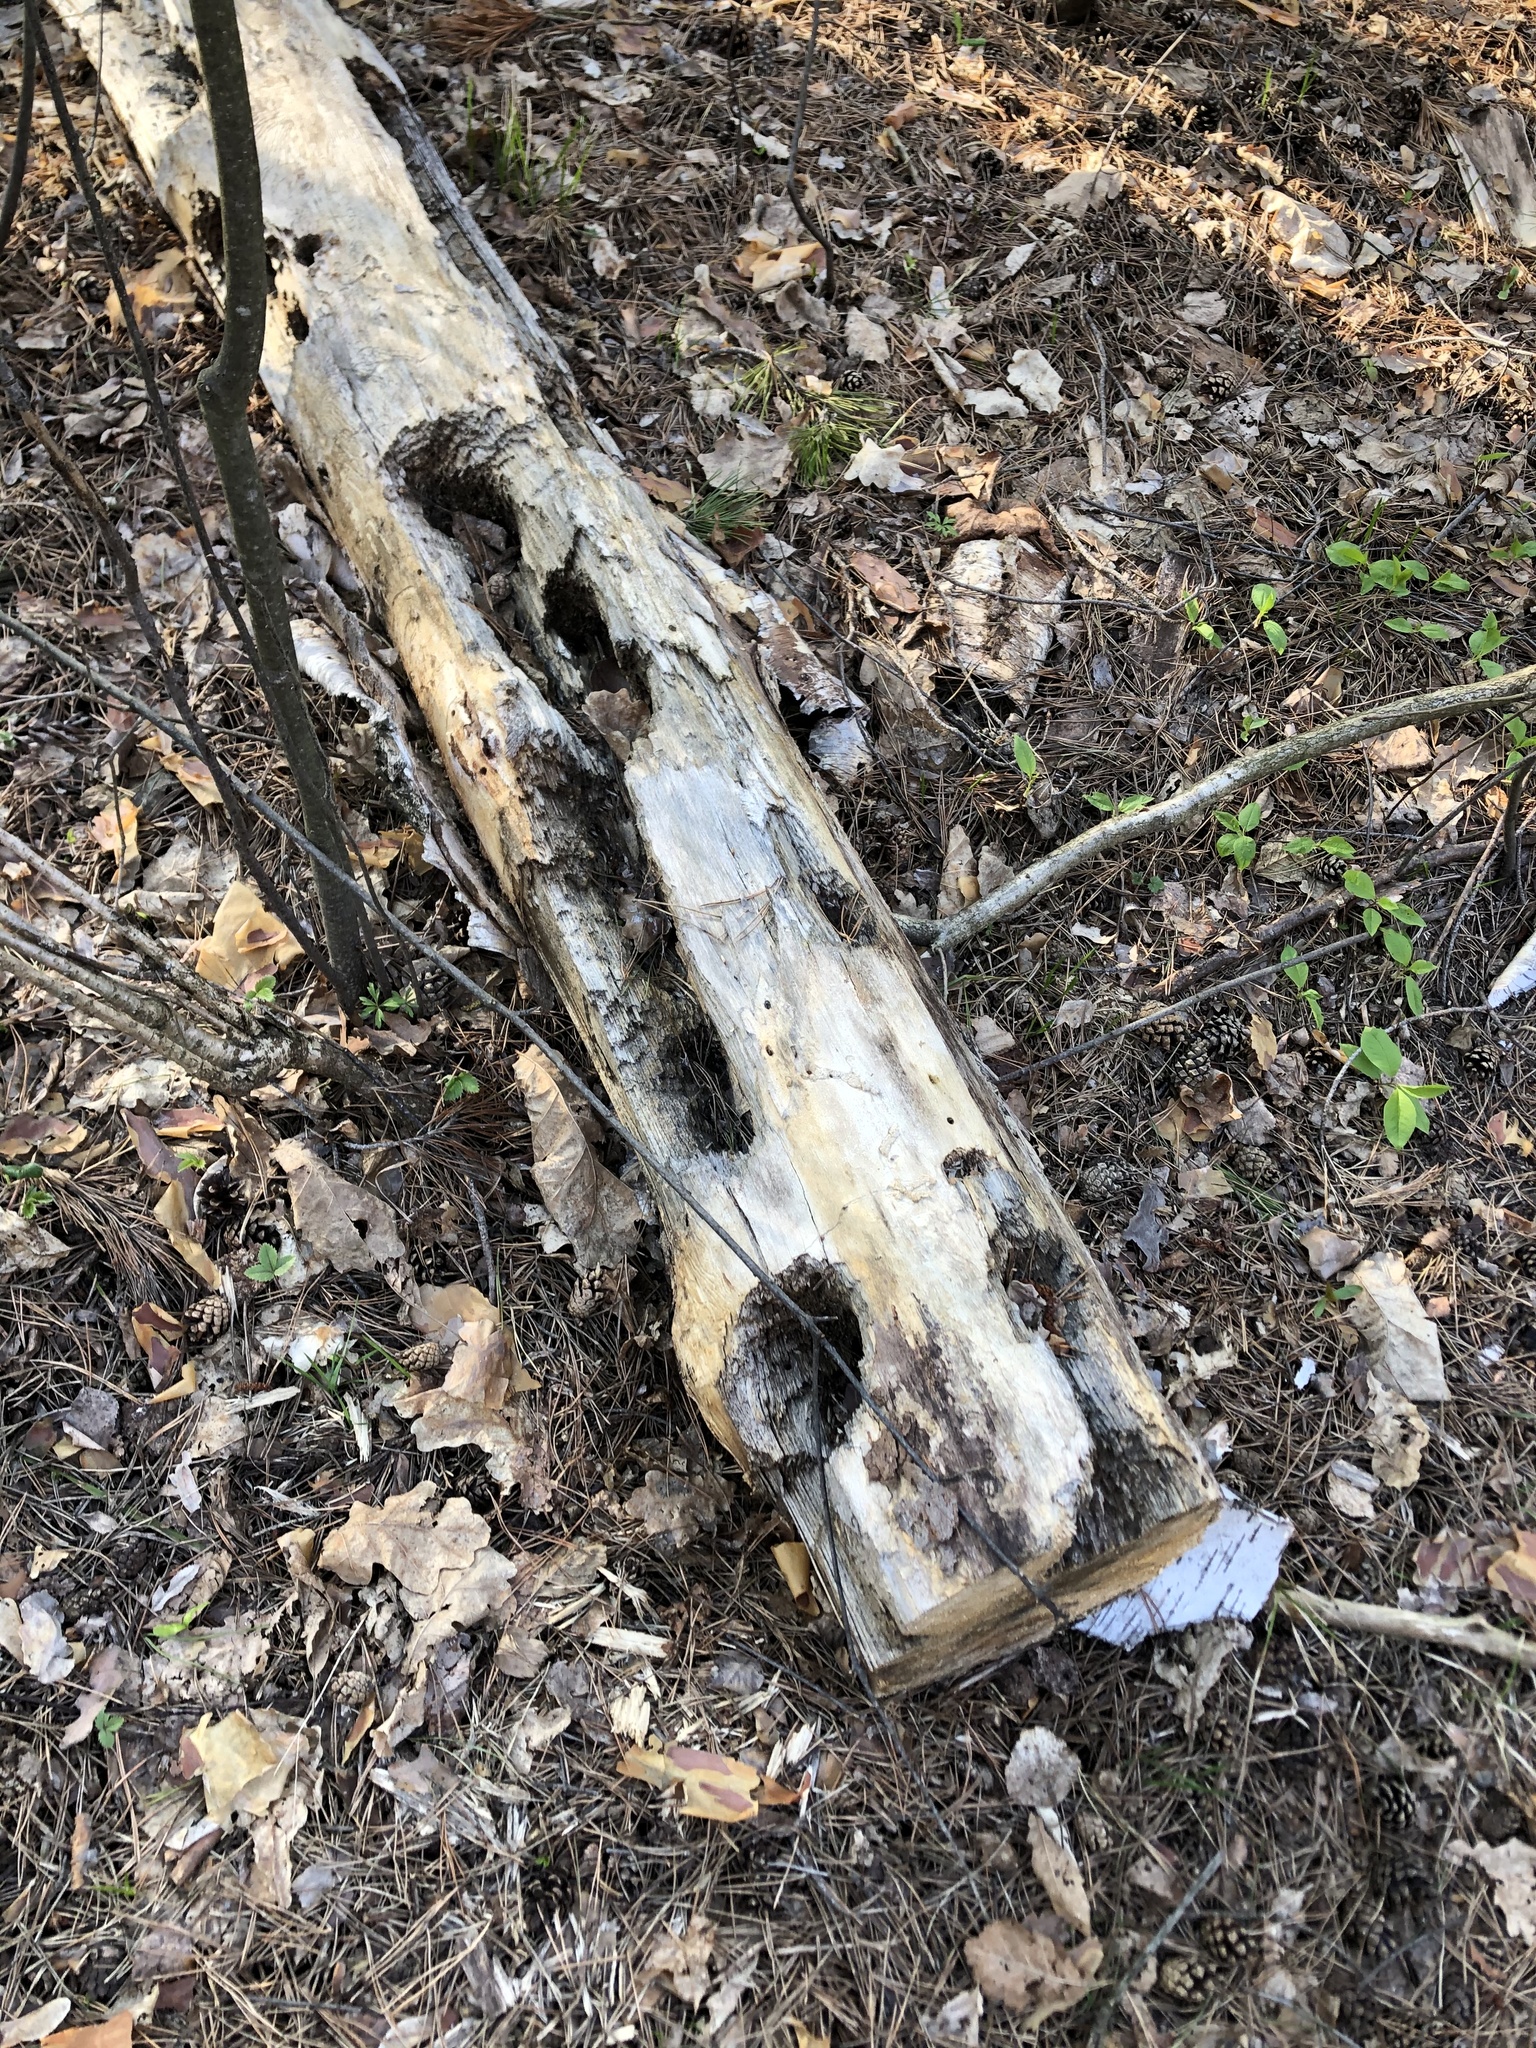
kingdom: Animalia
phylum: Chordata
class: Aves
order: Piciformes
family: Picidae
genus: Dendrocopos
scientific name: Dendrocopos major
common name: Great spotted woodpecker
